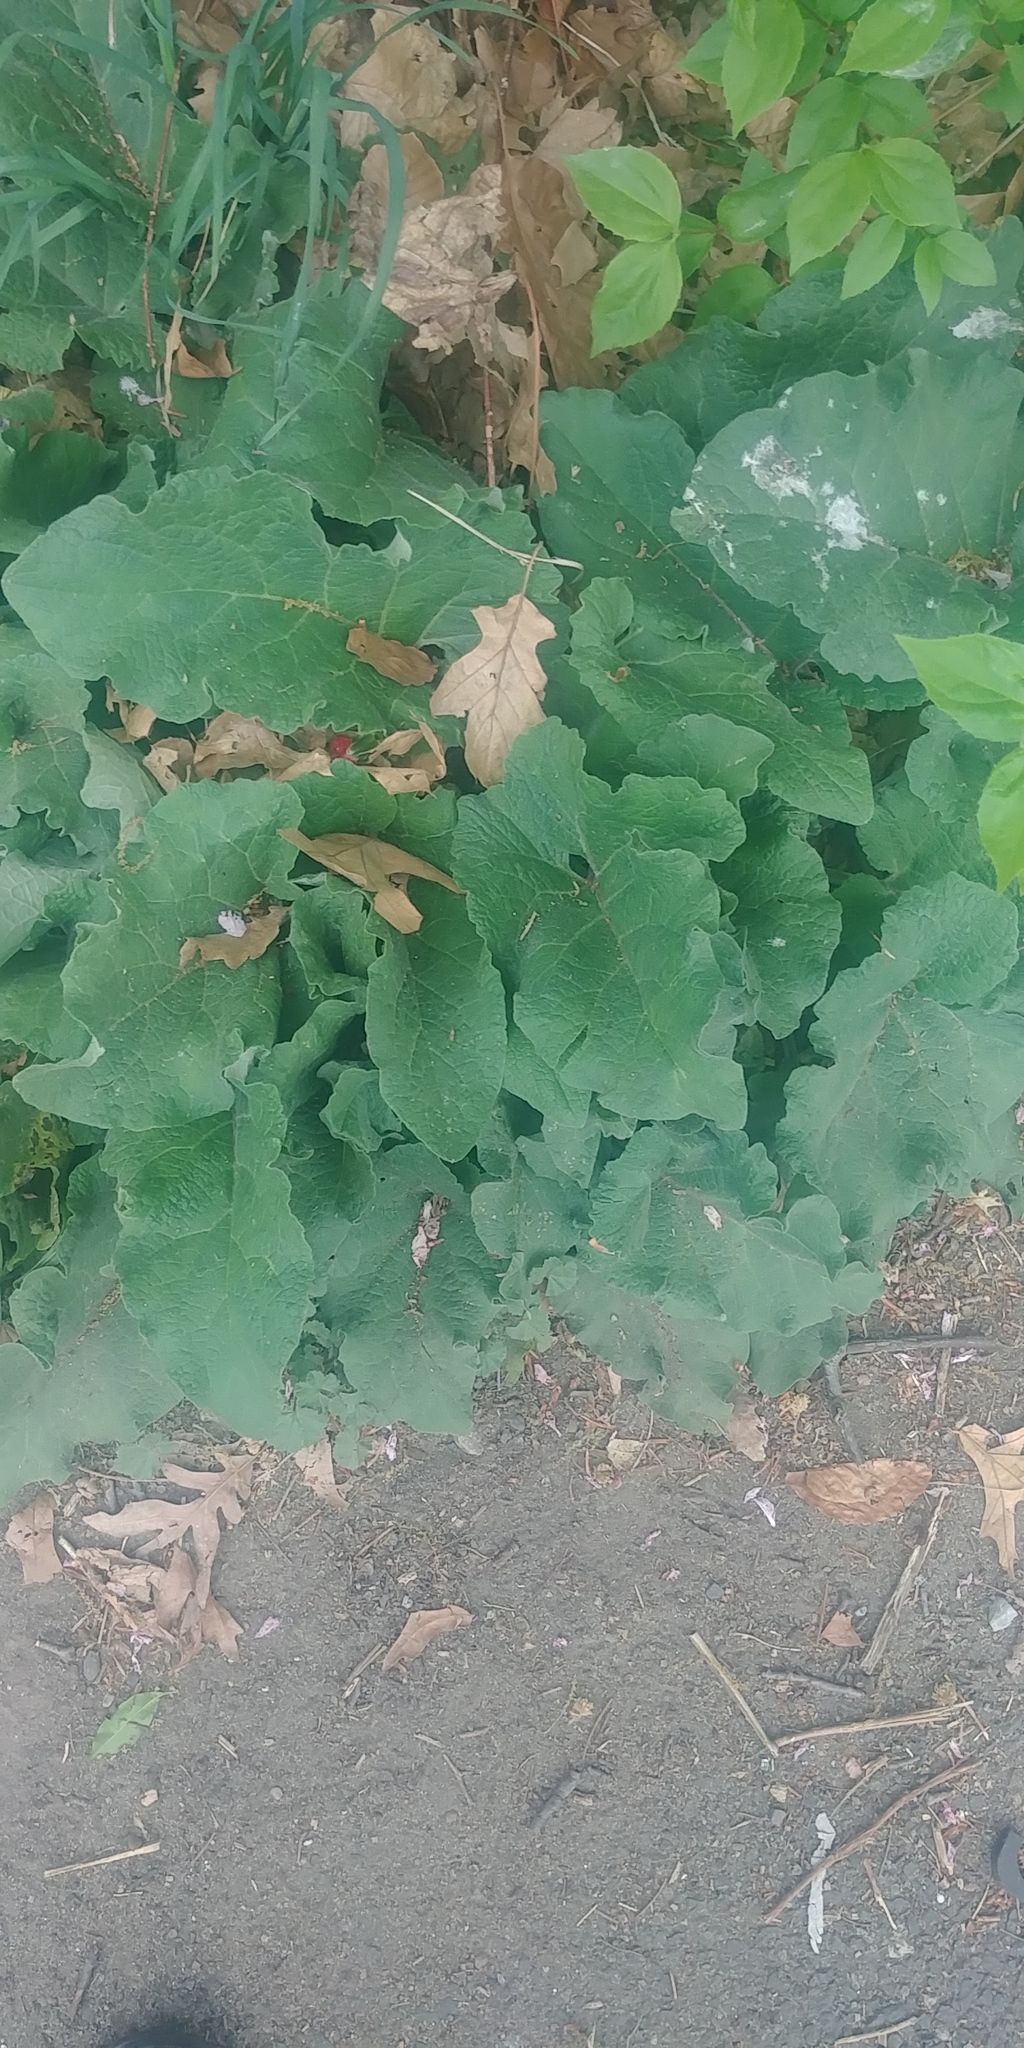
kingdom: Plantae
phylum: Tracheophyta
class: Magnoliopsida
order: Asterales
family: Asteraceae
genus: Arctium
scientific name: Arctium
